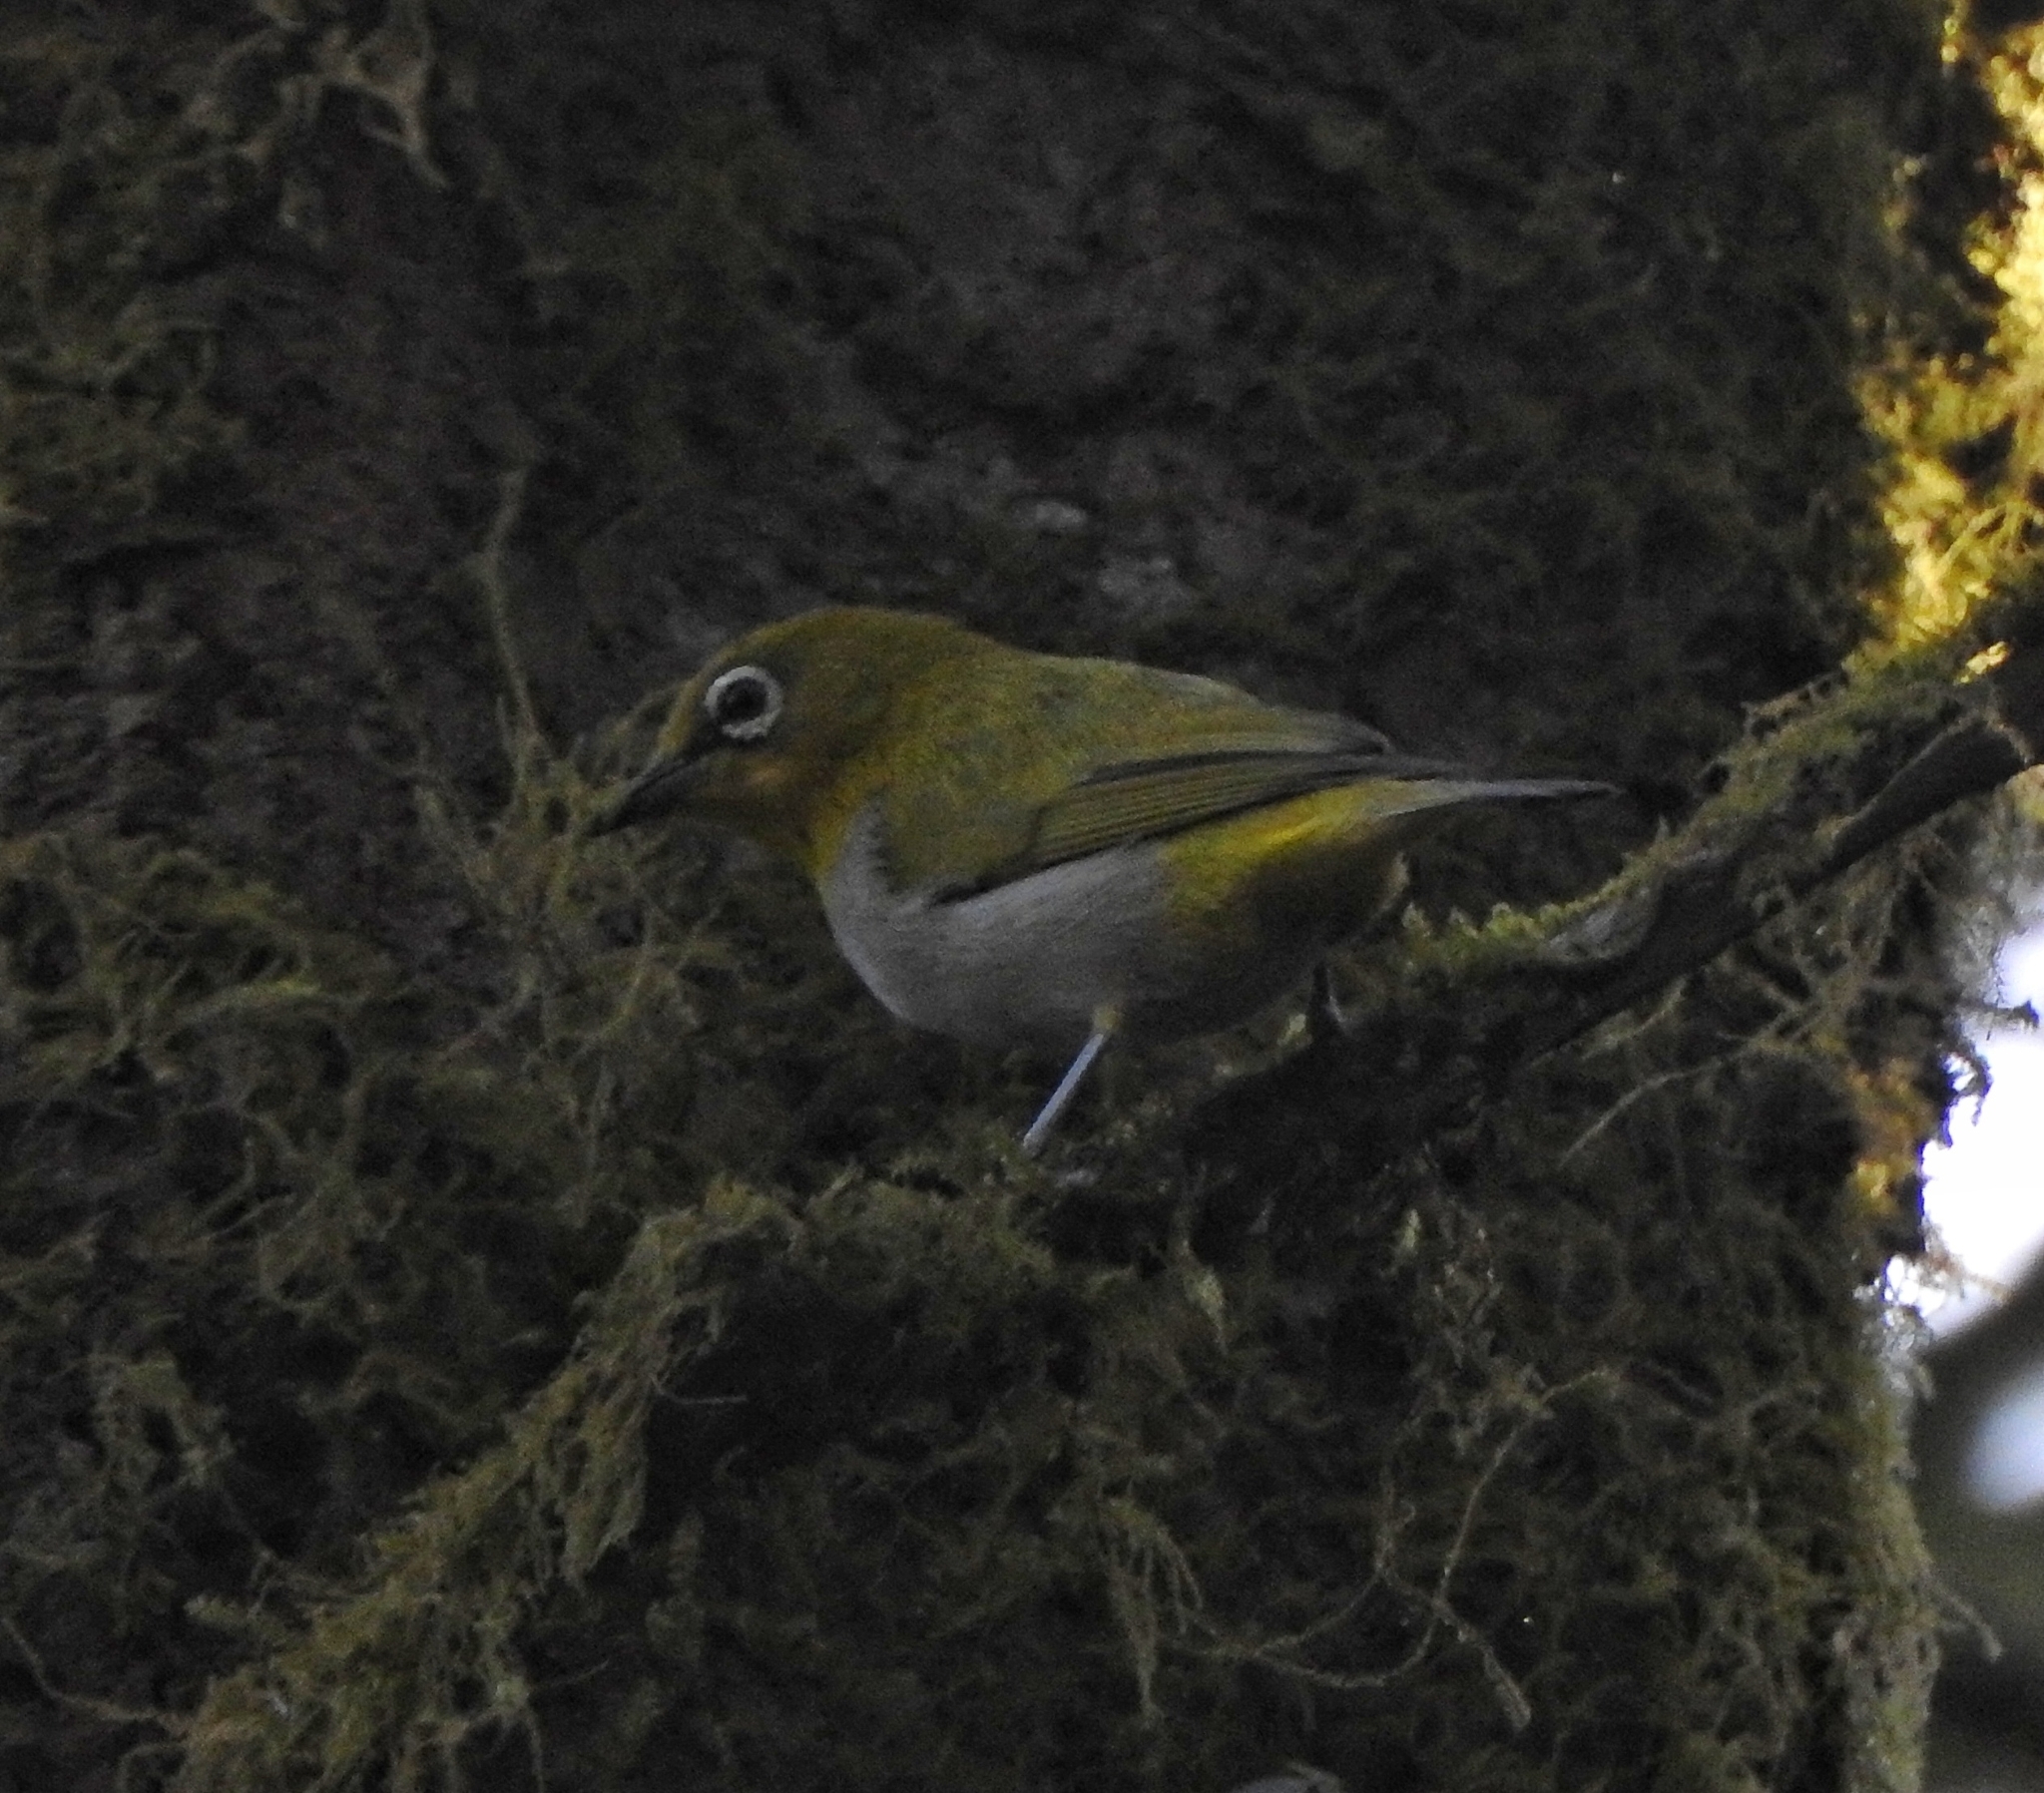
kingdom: Animalia
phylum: Chordata
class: Aves
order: Passeriformes
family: Zosteropidae
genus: Zosterops
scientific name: Zosterops palpebrosus
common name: Oriental white-eye
